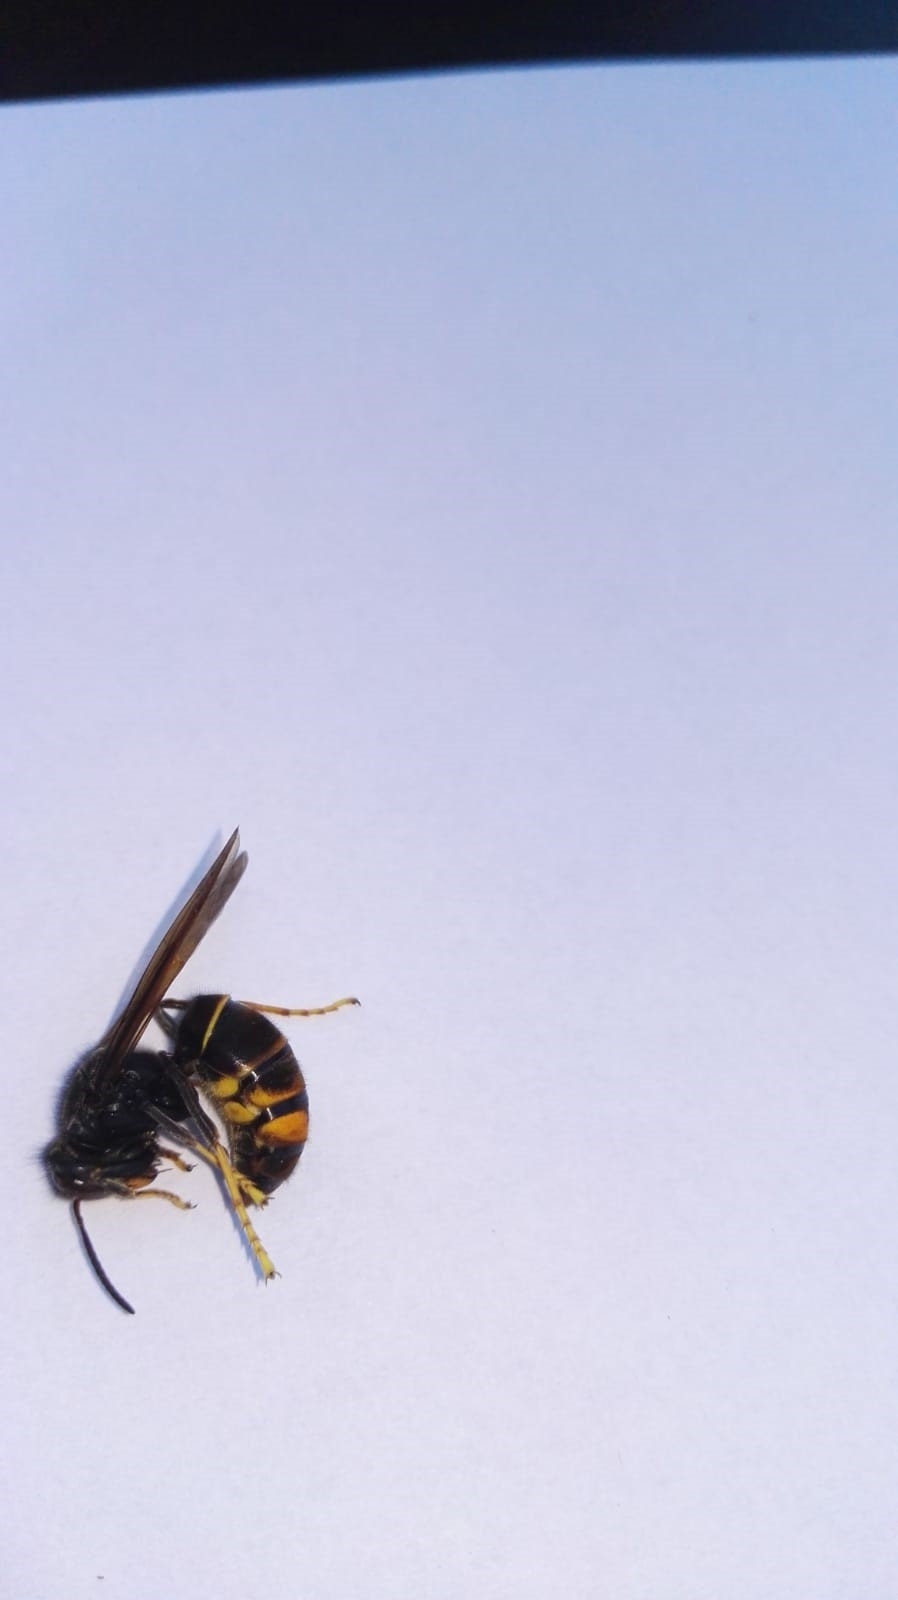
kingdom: Animalia
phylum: Arthropoda
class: Insecta
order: Hymenoptera
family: Vespidae
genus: Vespa
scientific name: Vespa velutina
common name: Asian hornet
